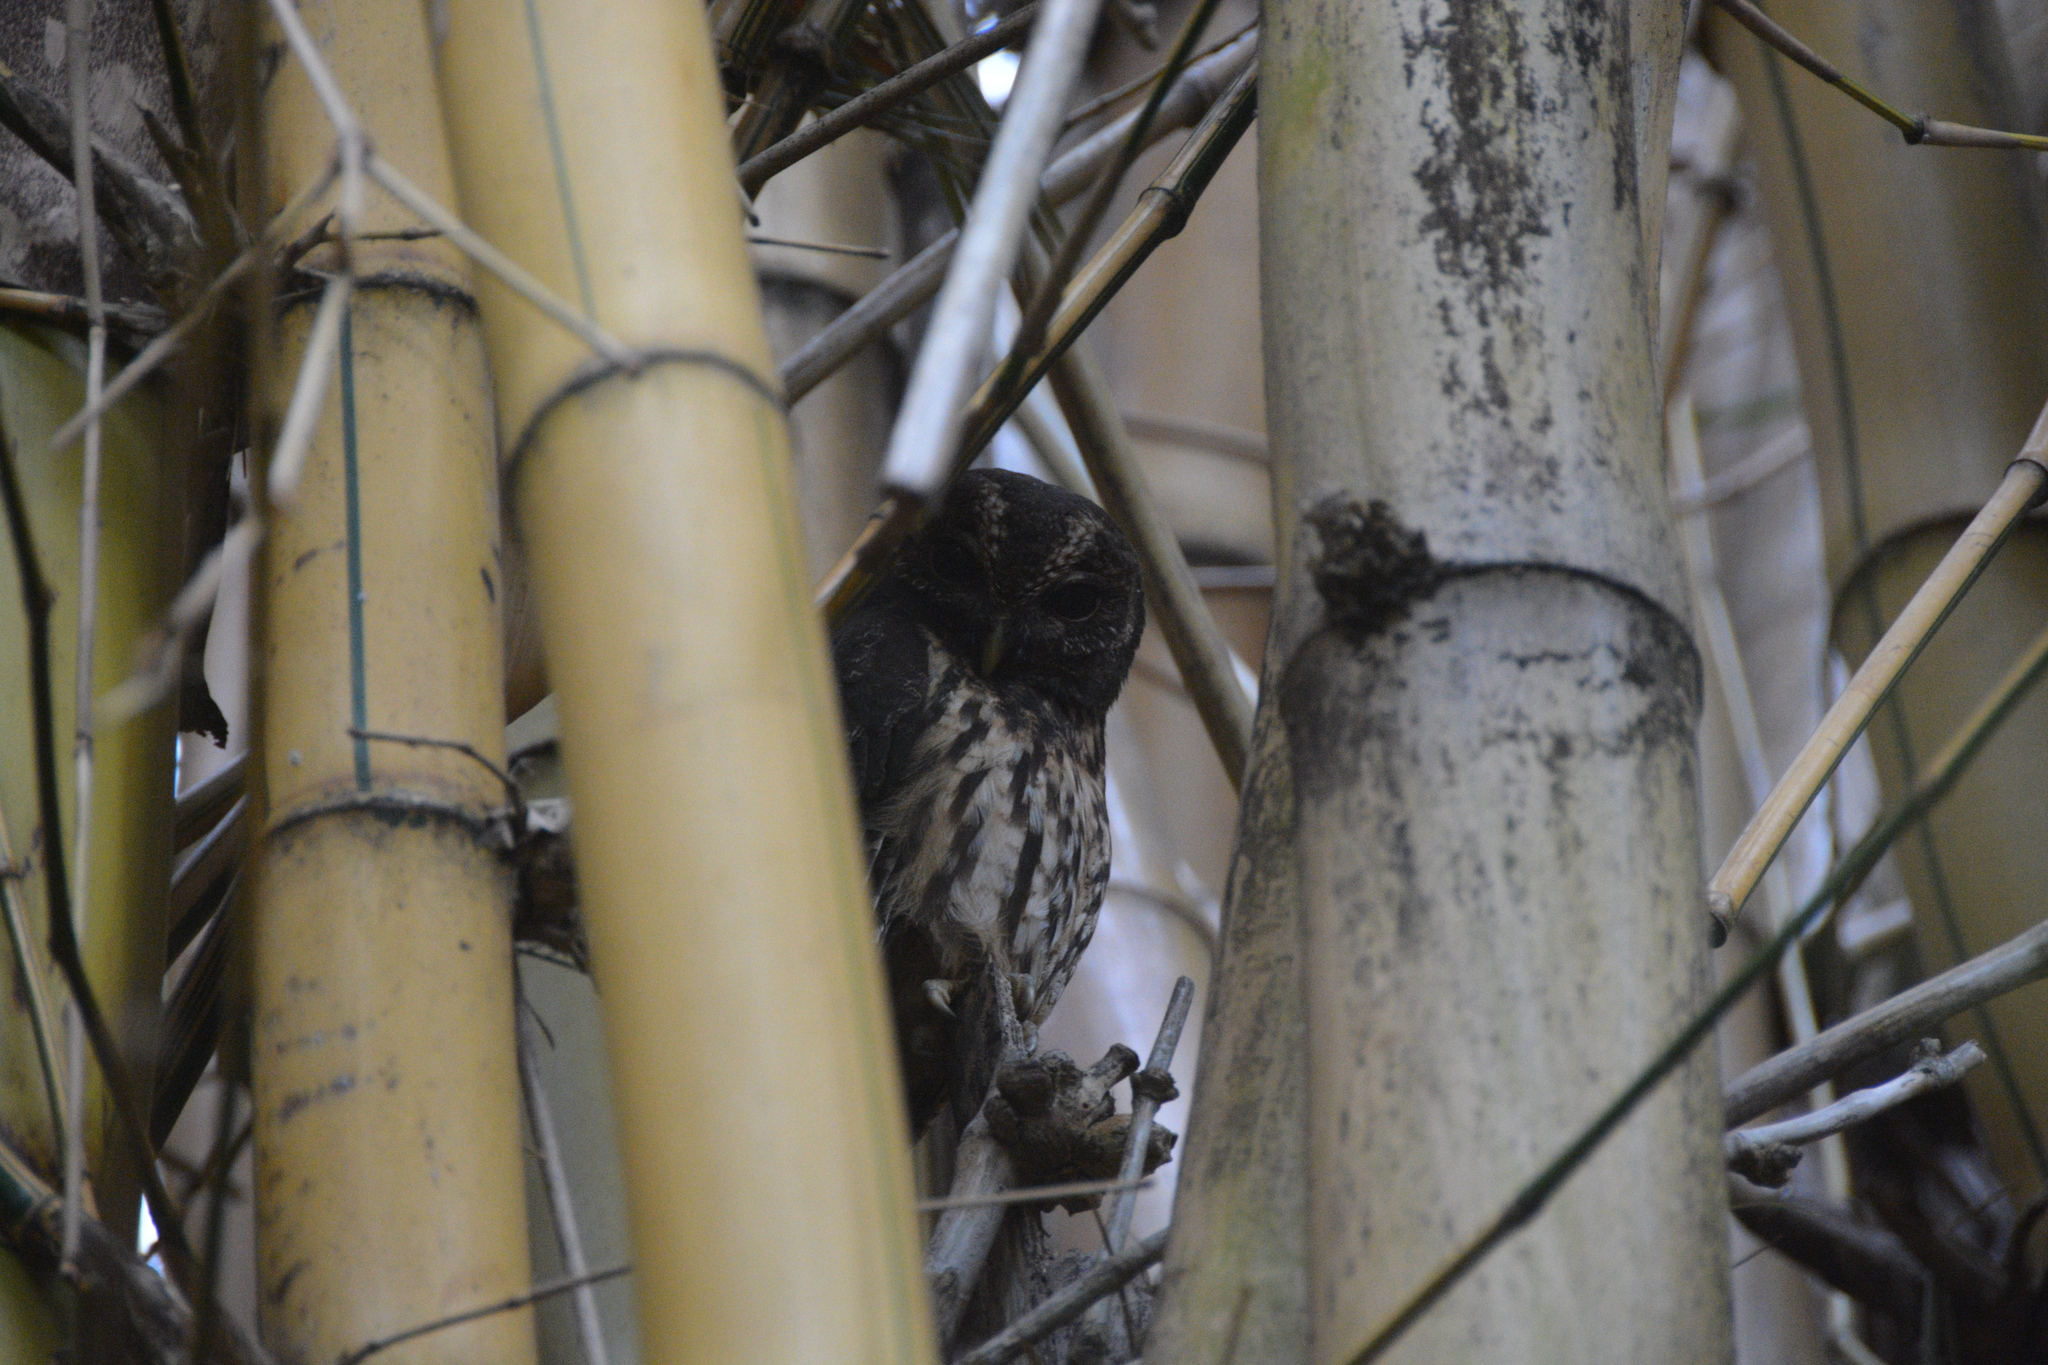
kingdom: Animalia
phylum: Chordata
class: Aves
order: Strigiformes
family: Strigidae
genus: Strix
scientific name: Strix virgata
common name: Mottled owl
